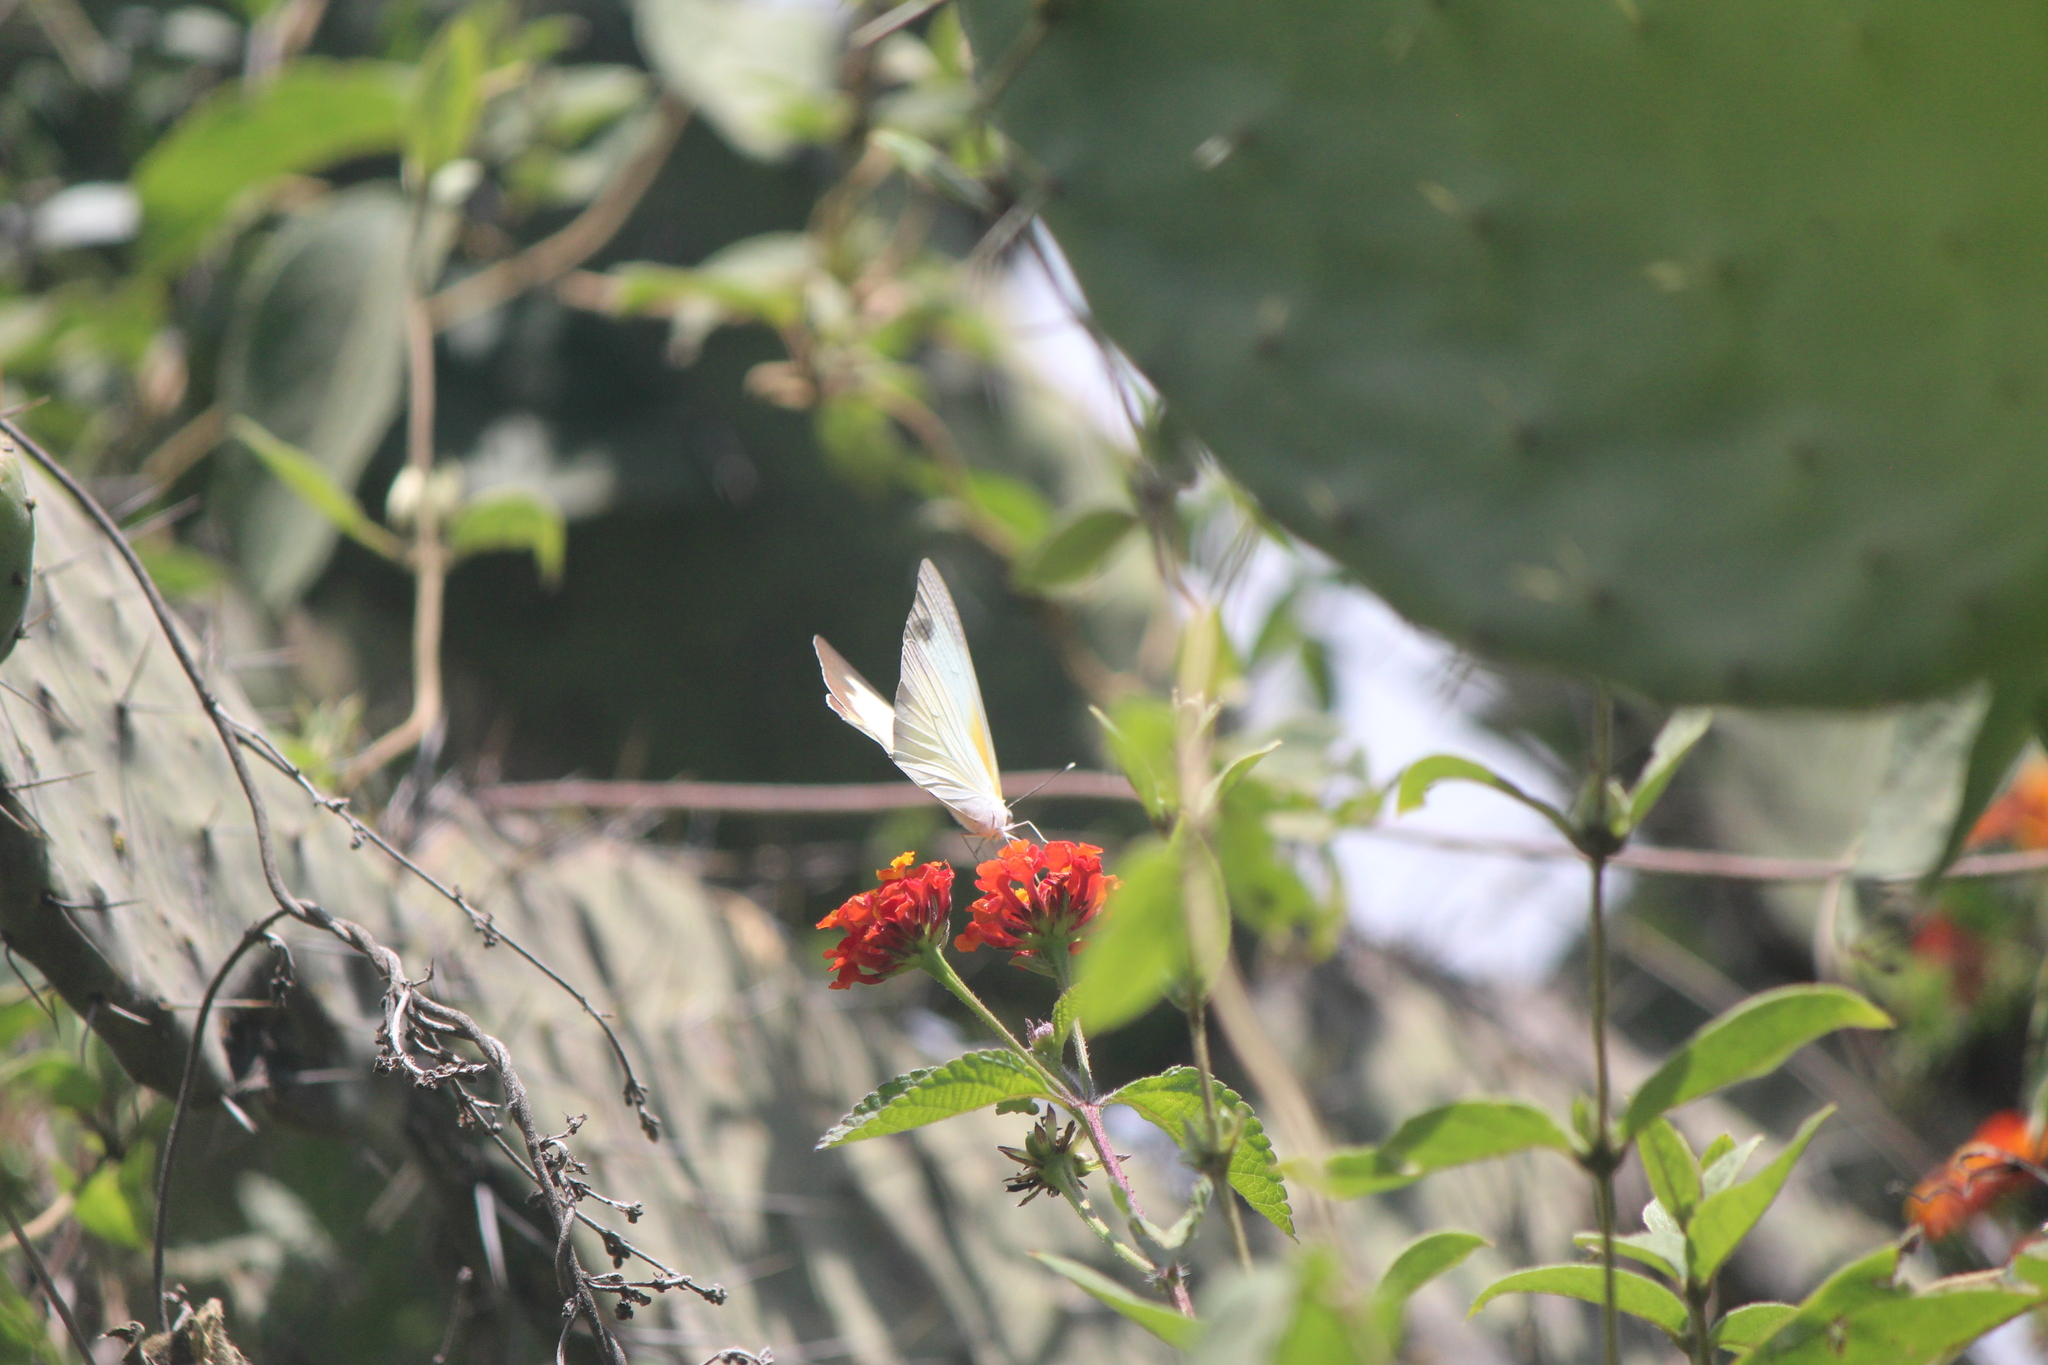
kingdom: Animalia
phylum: Arthropoda
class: Insecta
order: Lepidoptera
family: Pieridae
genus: Glutophrissa
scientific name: Glutophrissa drusilla
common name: Florida white
